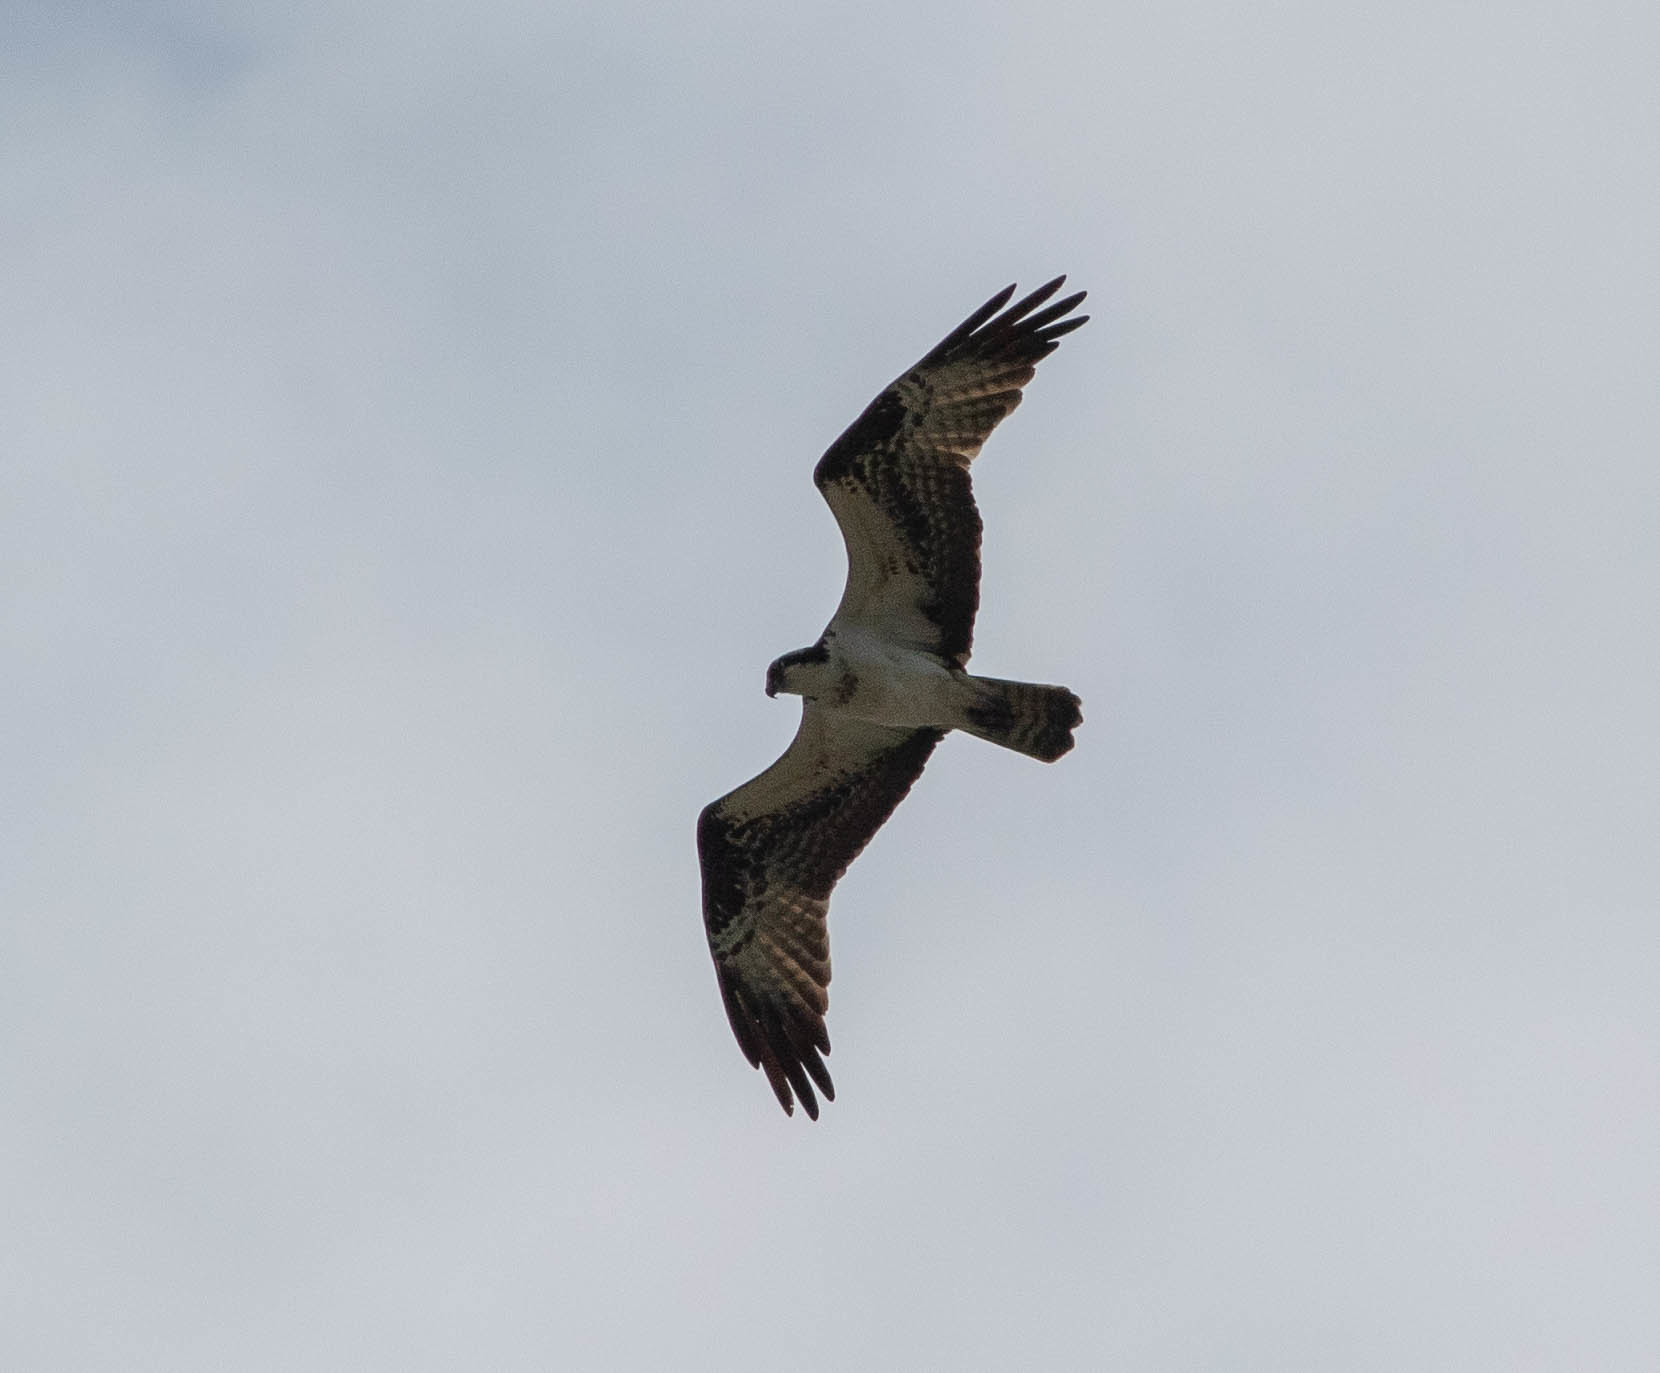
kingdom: Animalia
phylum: Chordata
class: Aves
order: Accipitriformes
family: Pandionidae
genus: Pandion
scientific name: Pandion haliaetus
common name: Osprey
